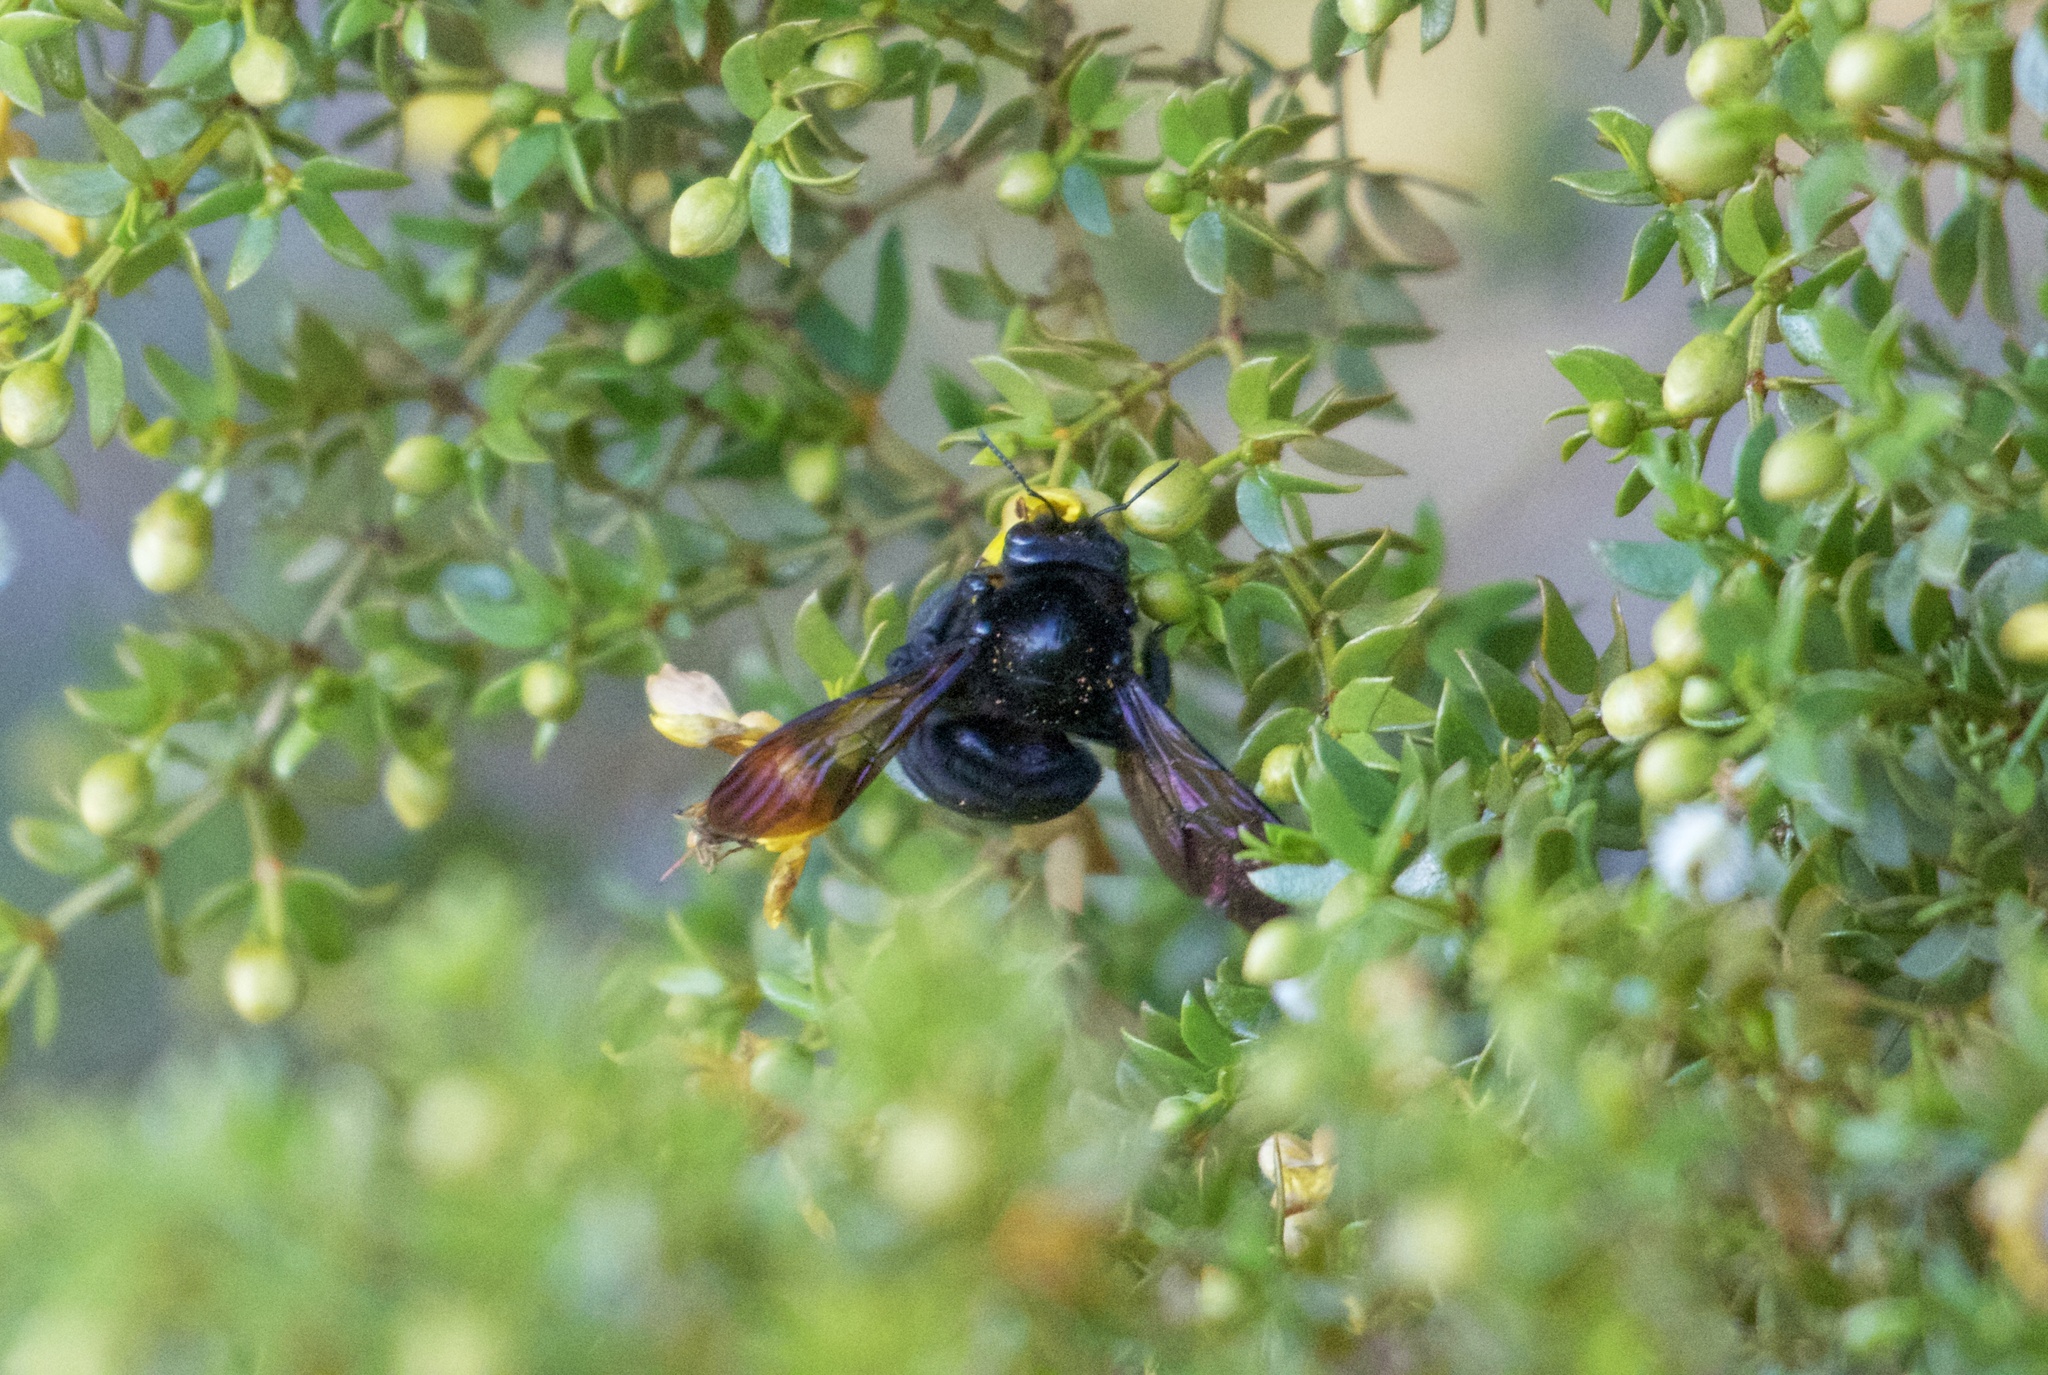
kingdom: Animalia
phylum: Arthropoda
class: Insecta
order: Hymenoptera
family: Apidae
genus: Xylocopa
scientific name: Xylocopa sonorina
